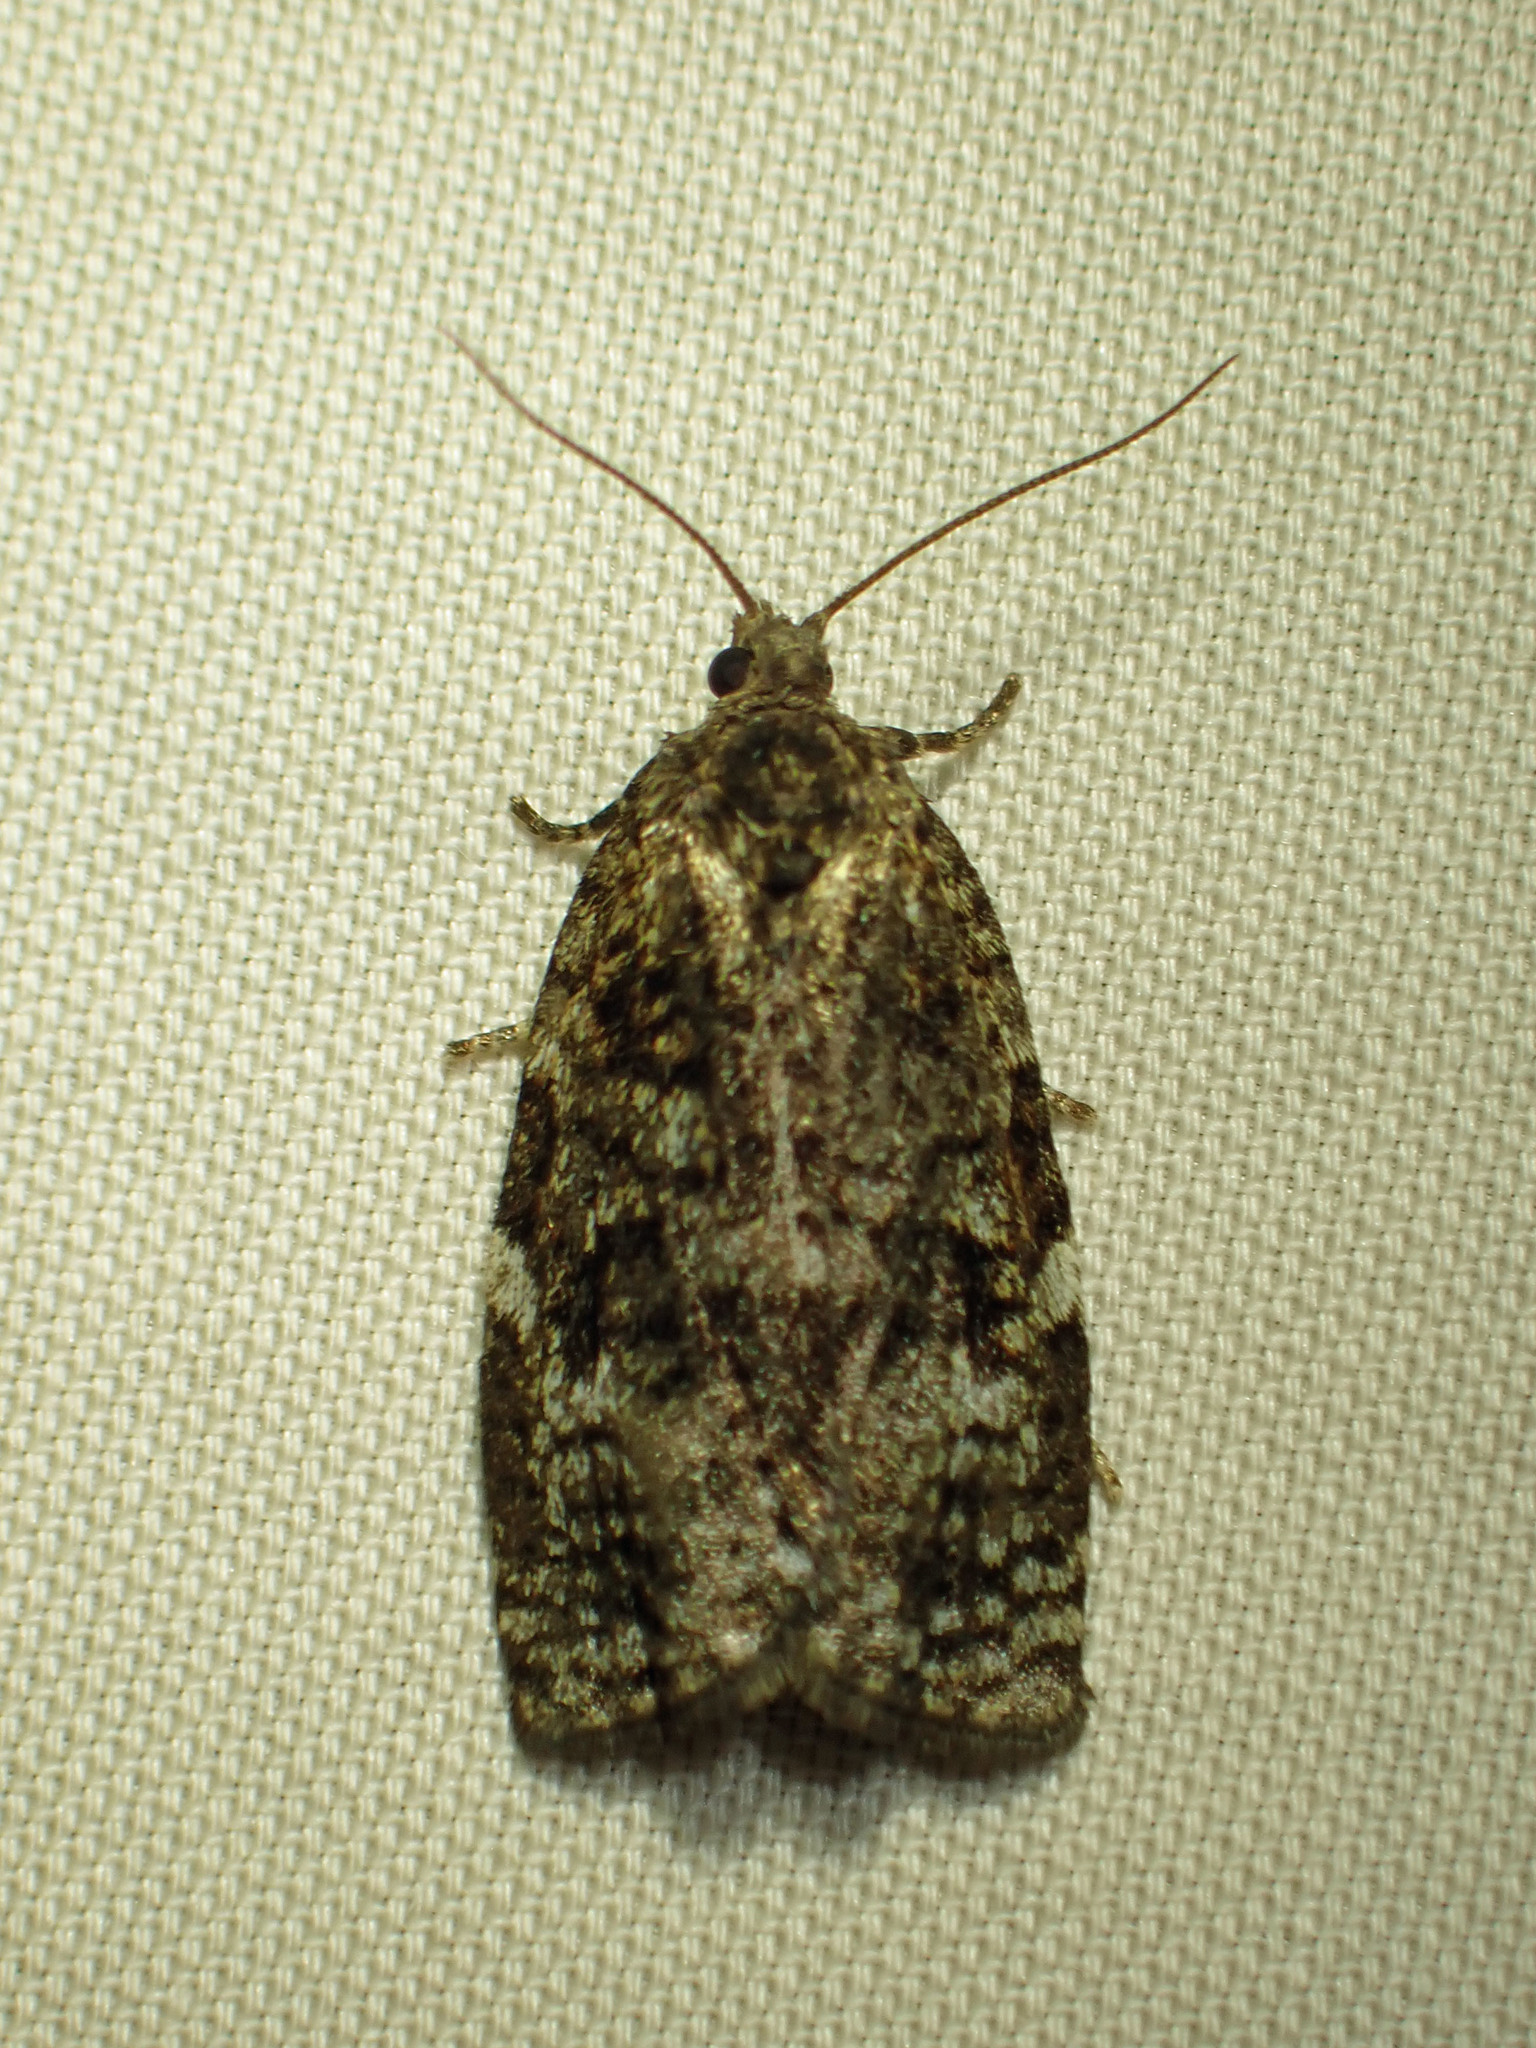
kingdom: Animalia
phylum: Arthropoda
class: Insecta
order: Lepidoptera
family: Tortricidae
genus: Choristoneura
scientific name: Choristoneura fumiferana
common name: Spruce budworm
